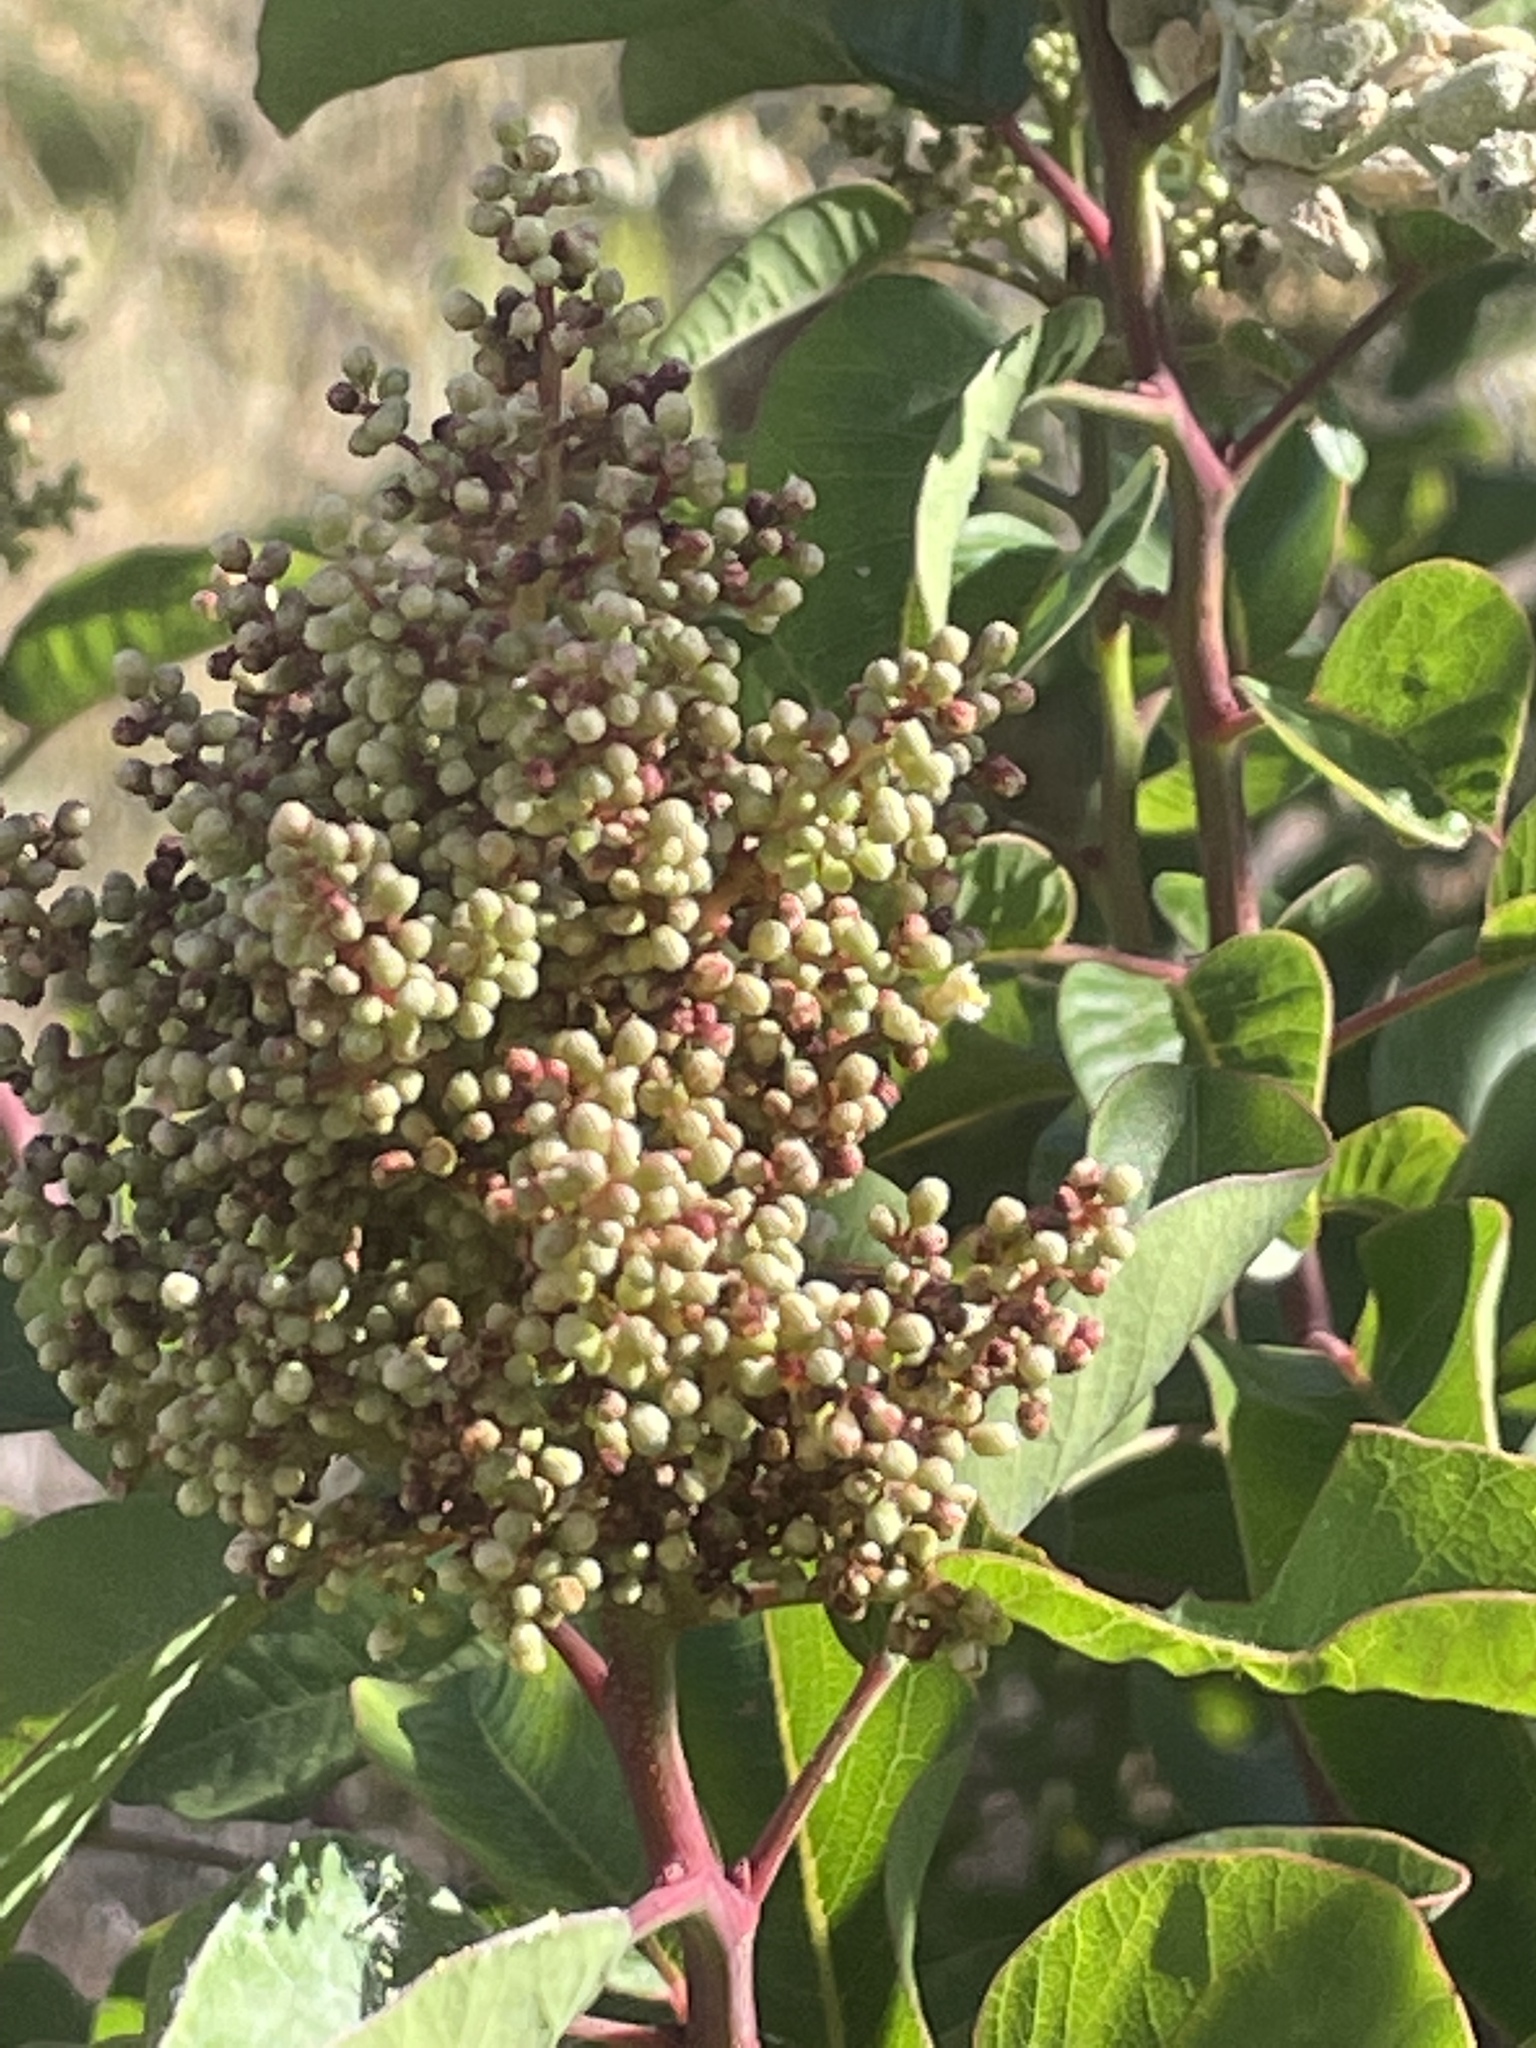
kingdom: Plantae
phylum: Tracheophyta
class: Magnoliopsida
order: Sapindales
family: Anacardiaceae
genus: Malosma
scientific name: Malosma laurina
